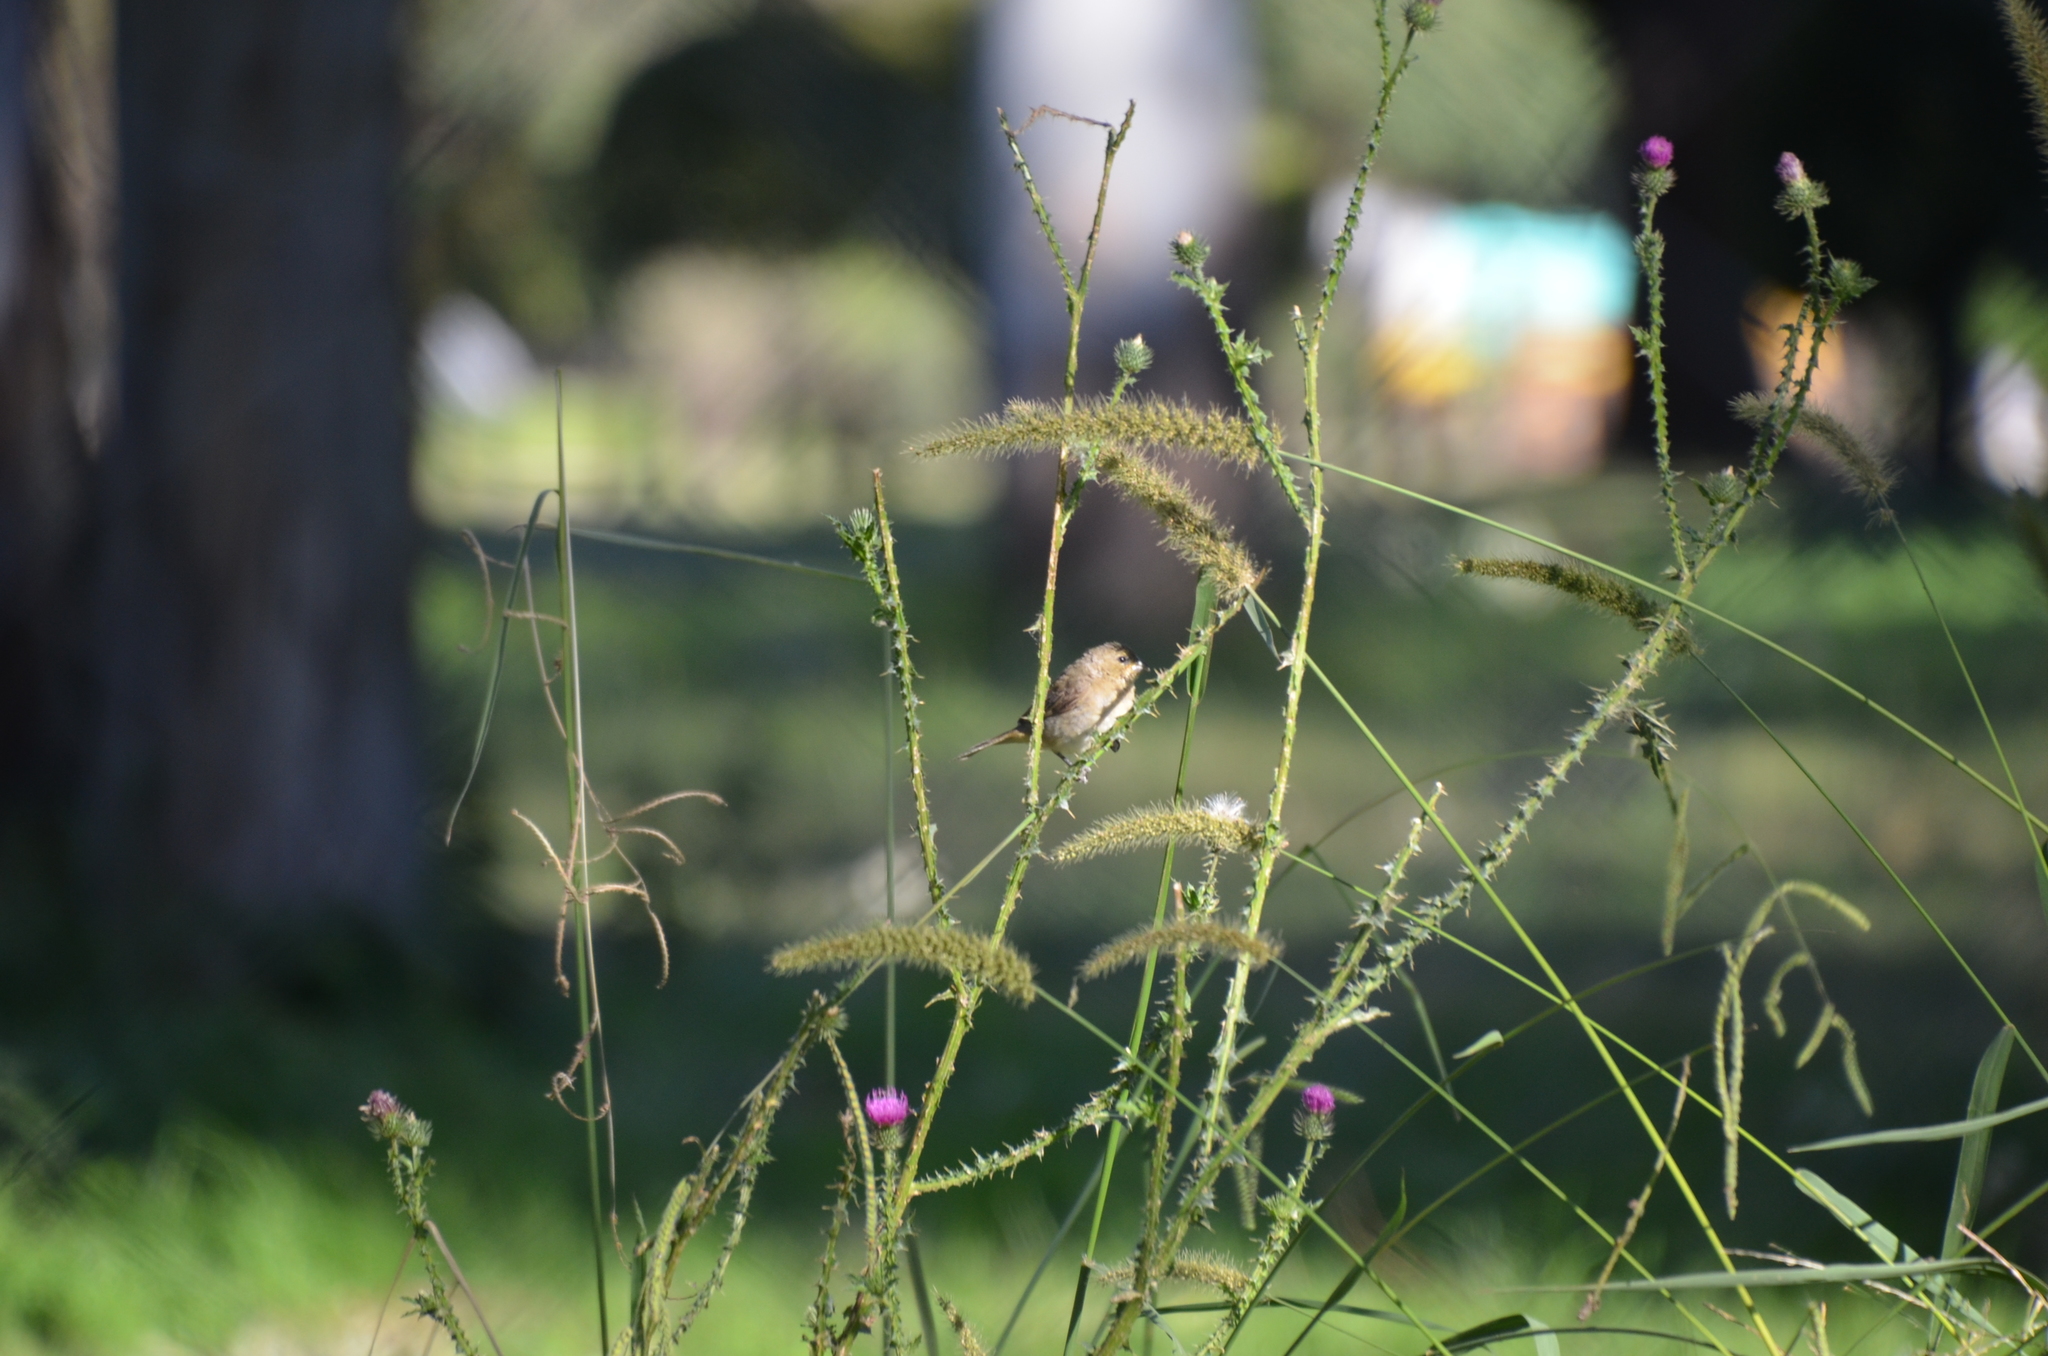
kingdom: Animalia
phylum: Chordata
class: Aves
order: Passeriformes
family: Thraupidae
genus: Sporophila
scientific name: Sporophila caerulescens
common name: Double-collared seedeater
